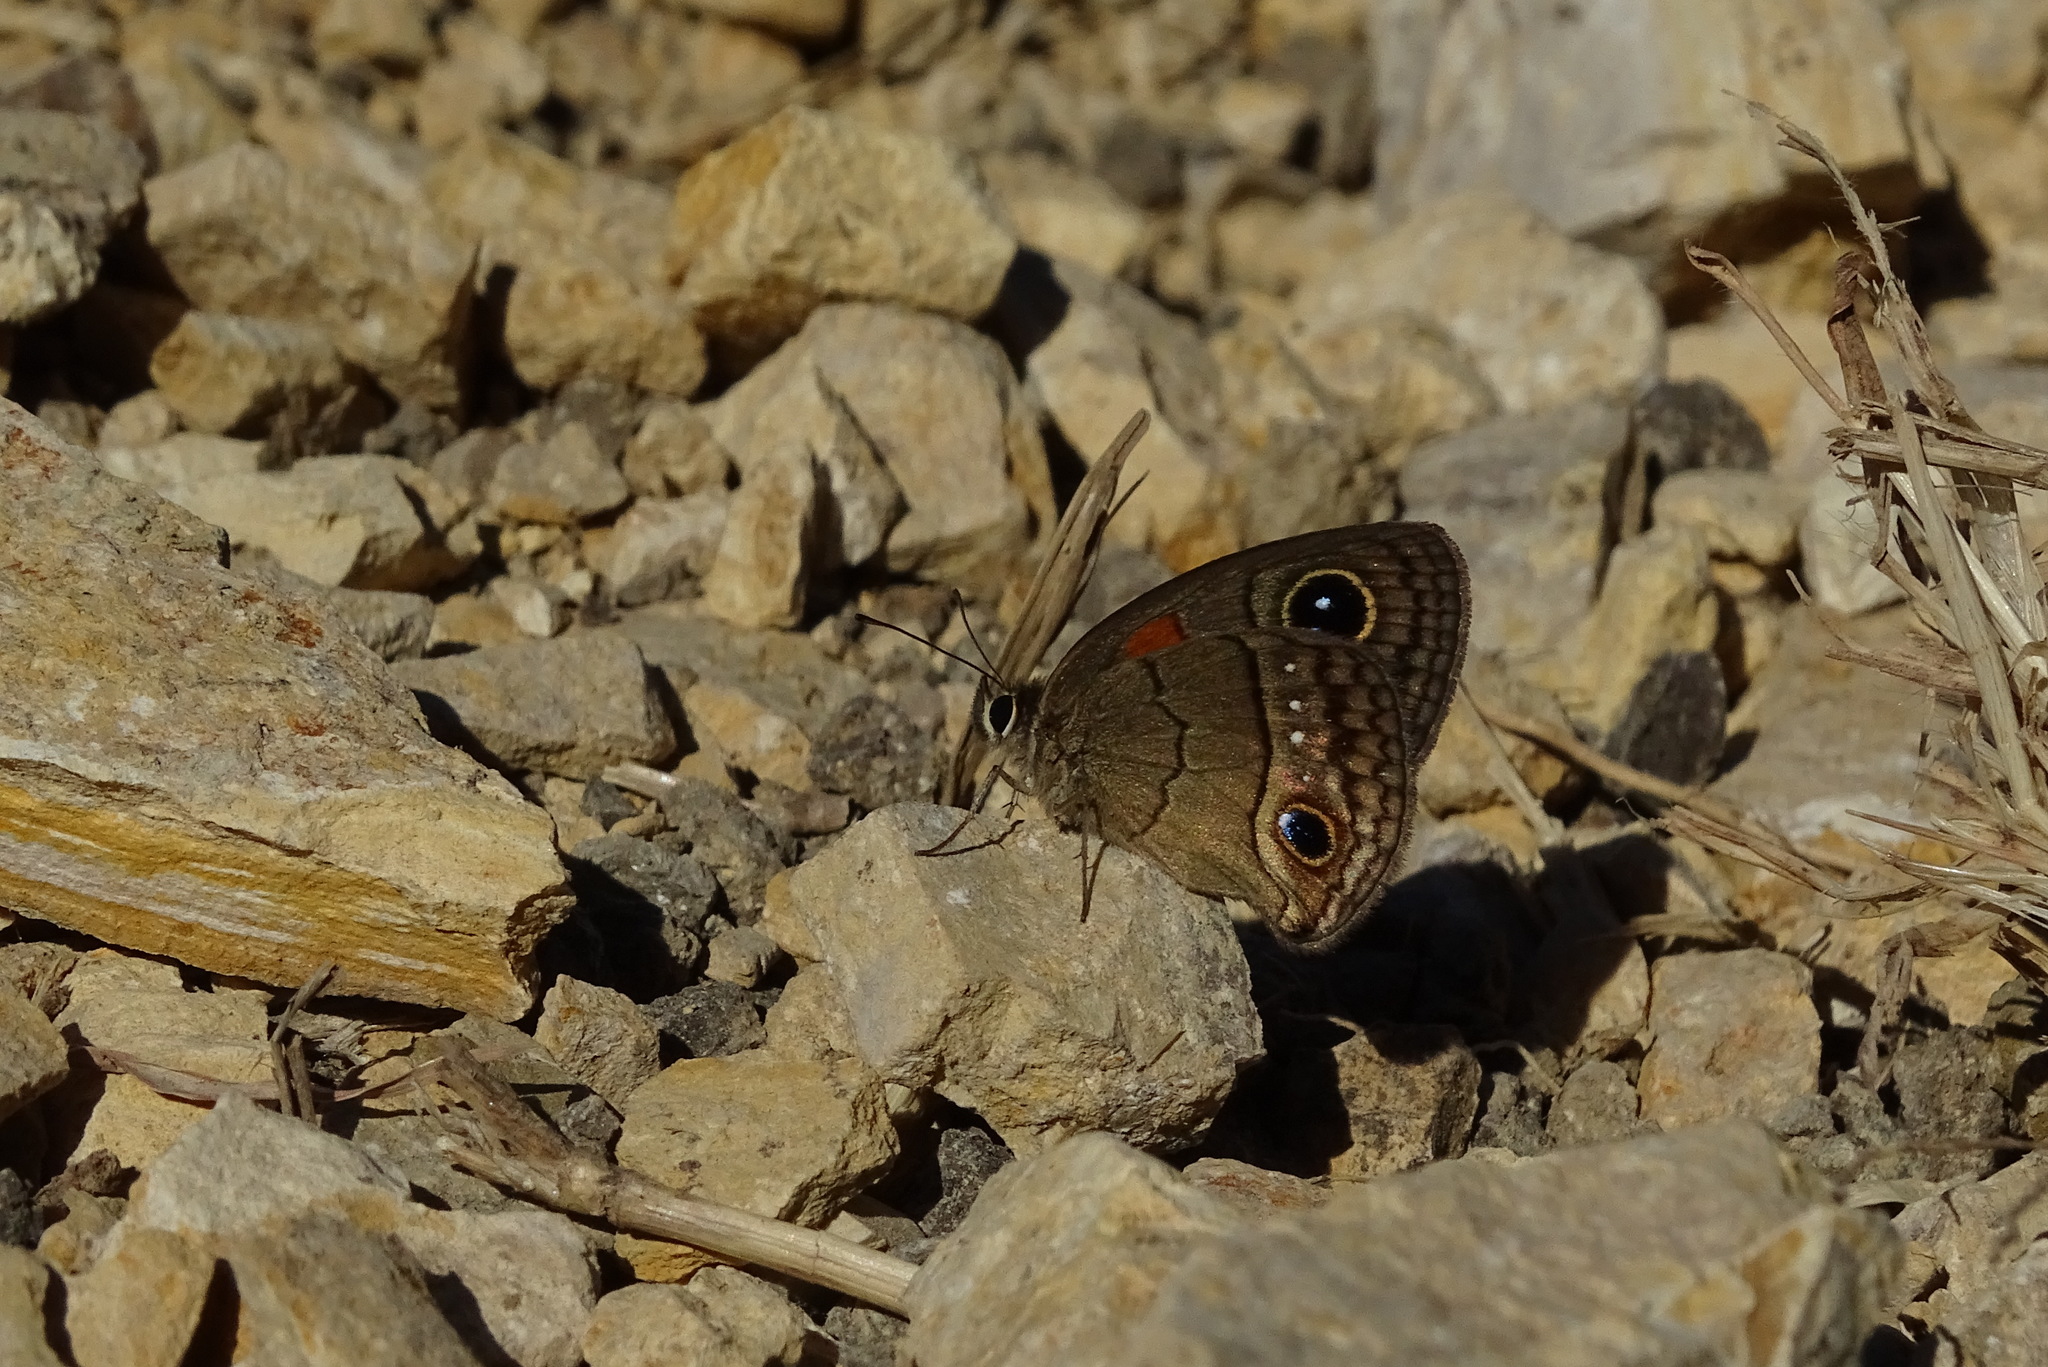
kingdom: Animalia
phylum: Arthropoda
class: Insecta
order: Lepidoptera
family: Nymphalidae
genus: Calisto
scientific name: Calisto herophile
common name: Cuban calisto
